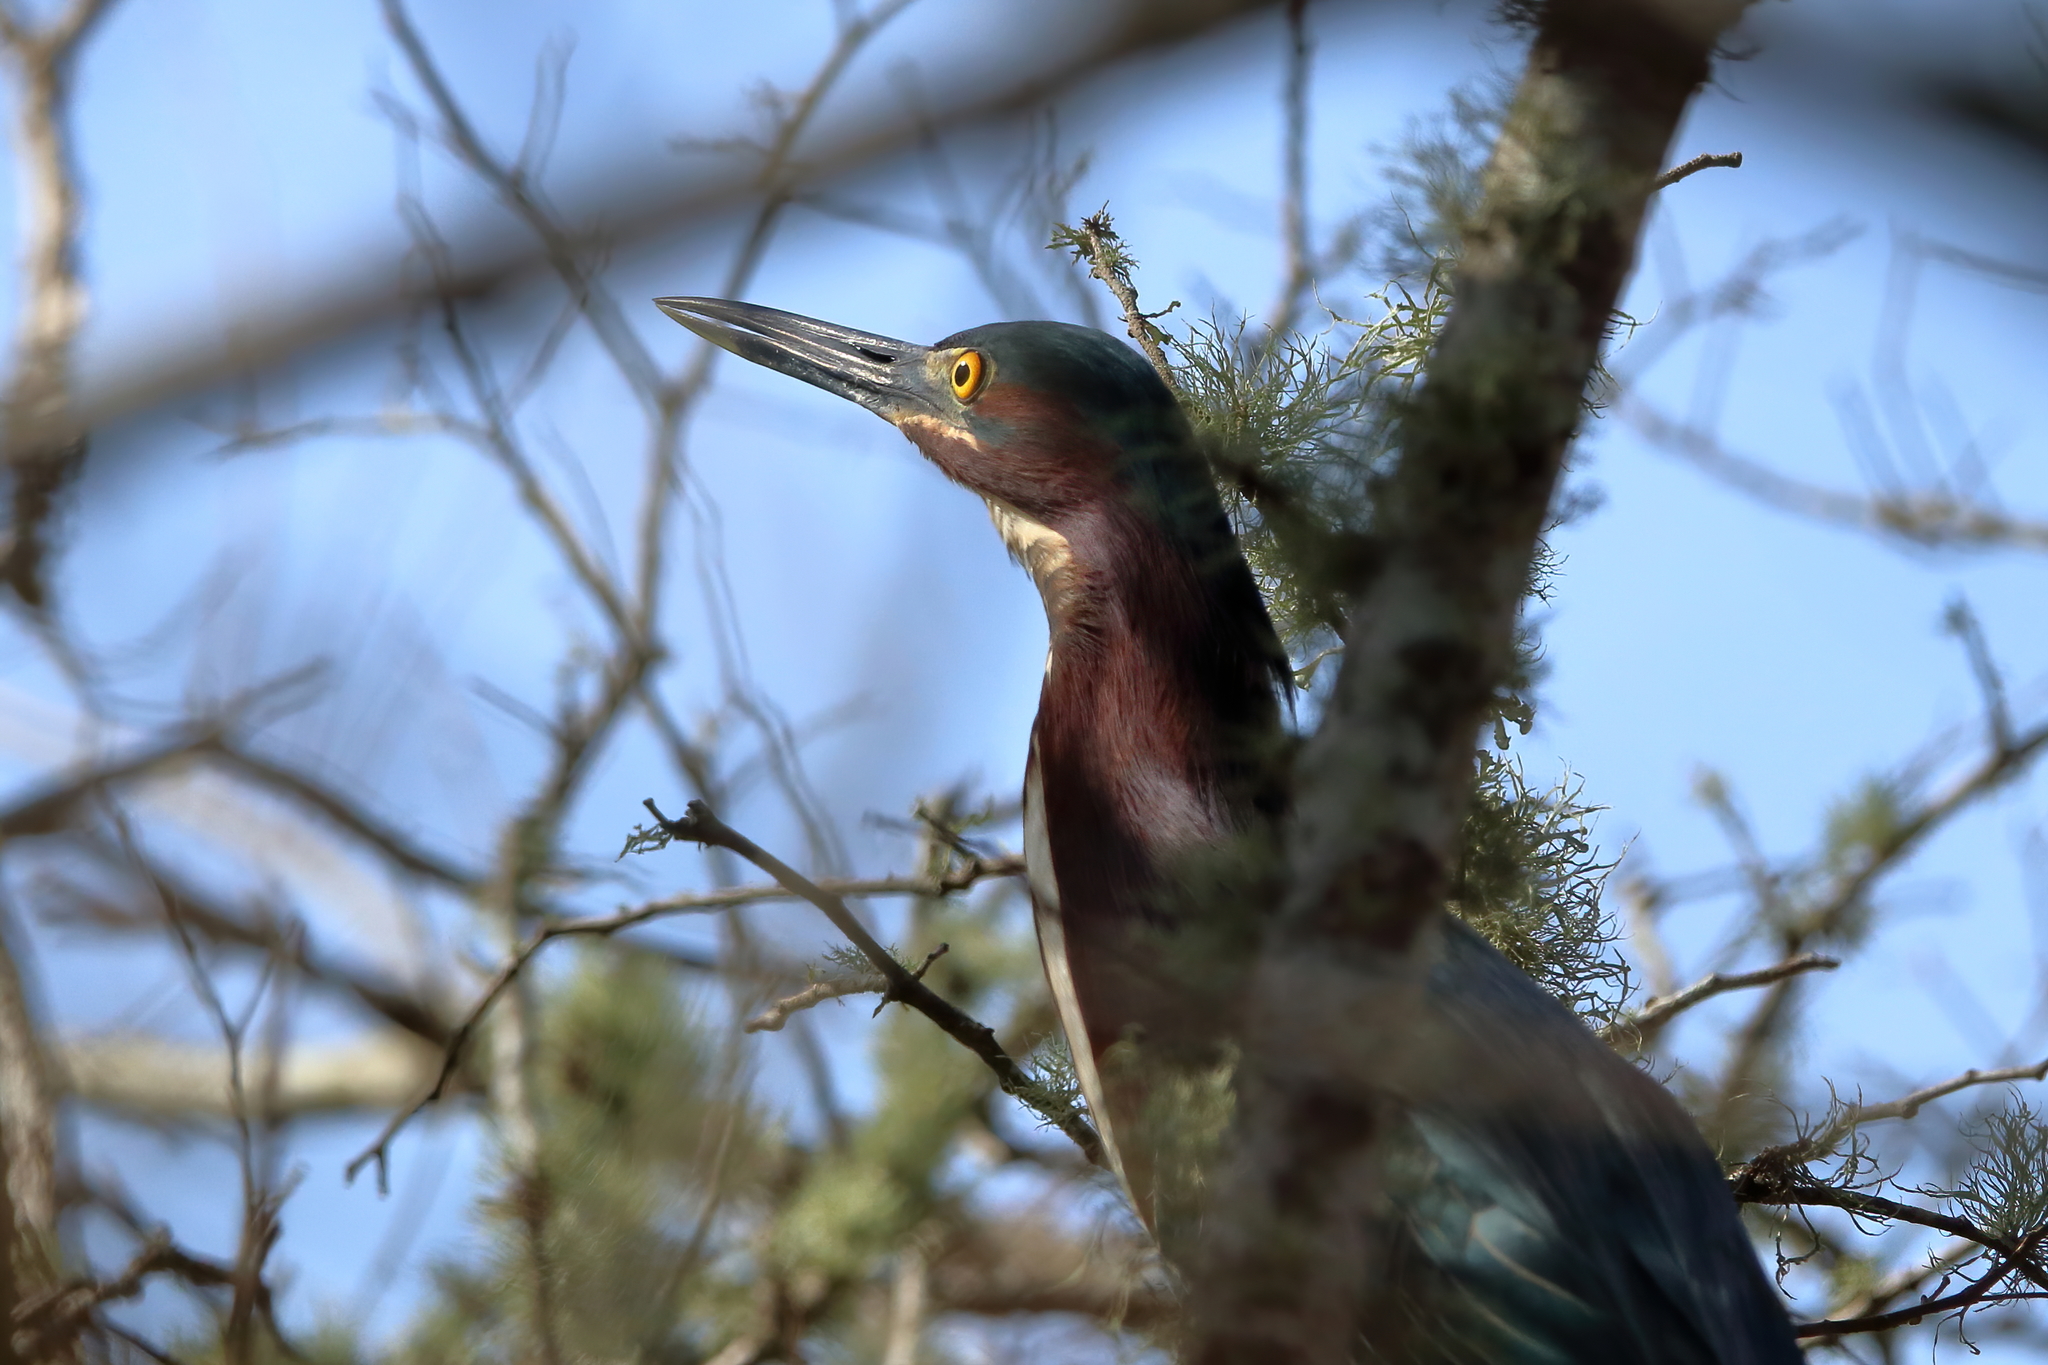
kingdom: Animalia
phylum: Chordata
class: Aves
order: Pelecaniformes
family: Ardeidae
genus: Butorides
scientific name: Butorides virescens
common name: Green heron
